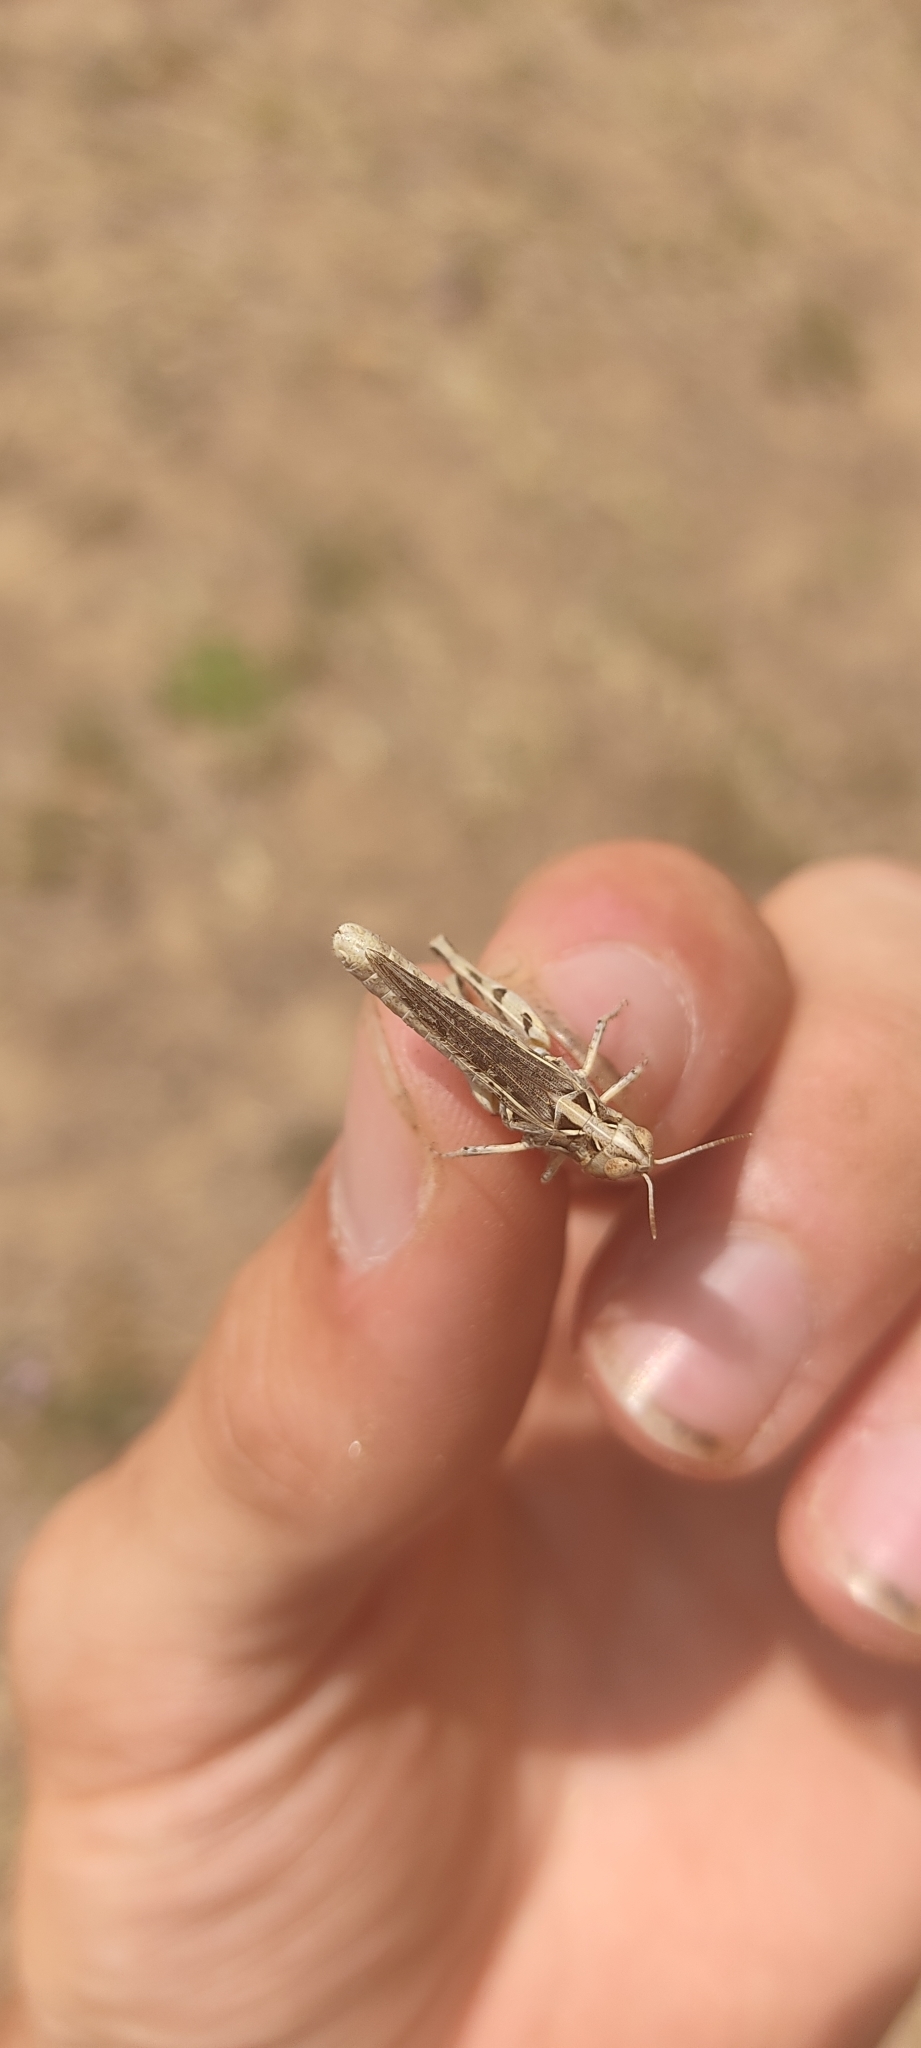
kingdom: Animalia
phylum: Arthropoda
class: Insecta
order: Orthoptera
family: Acrididae
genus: Dociostaurus
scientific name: Dociostaurus jagoi
